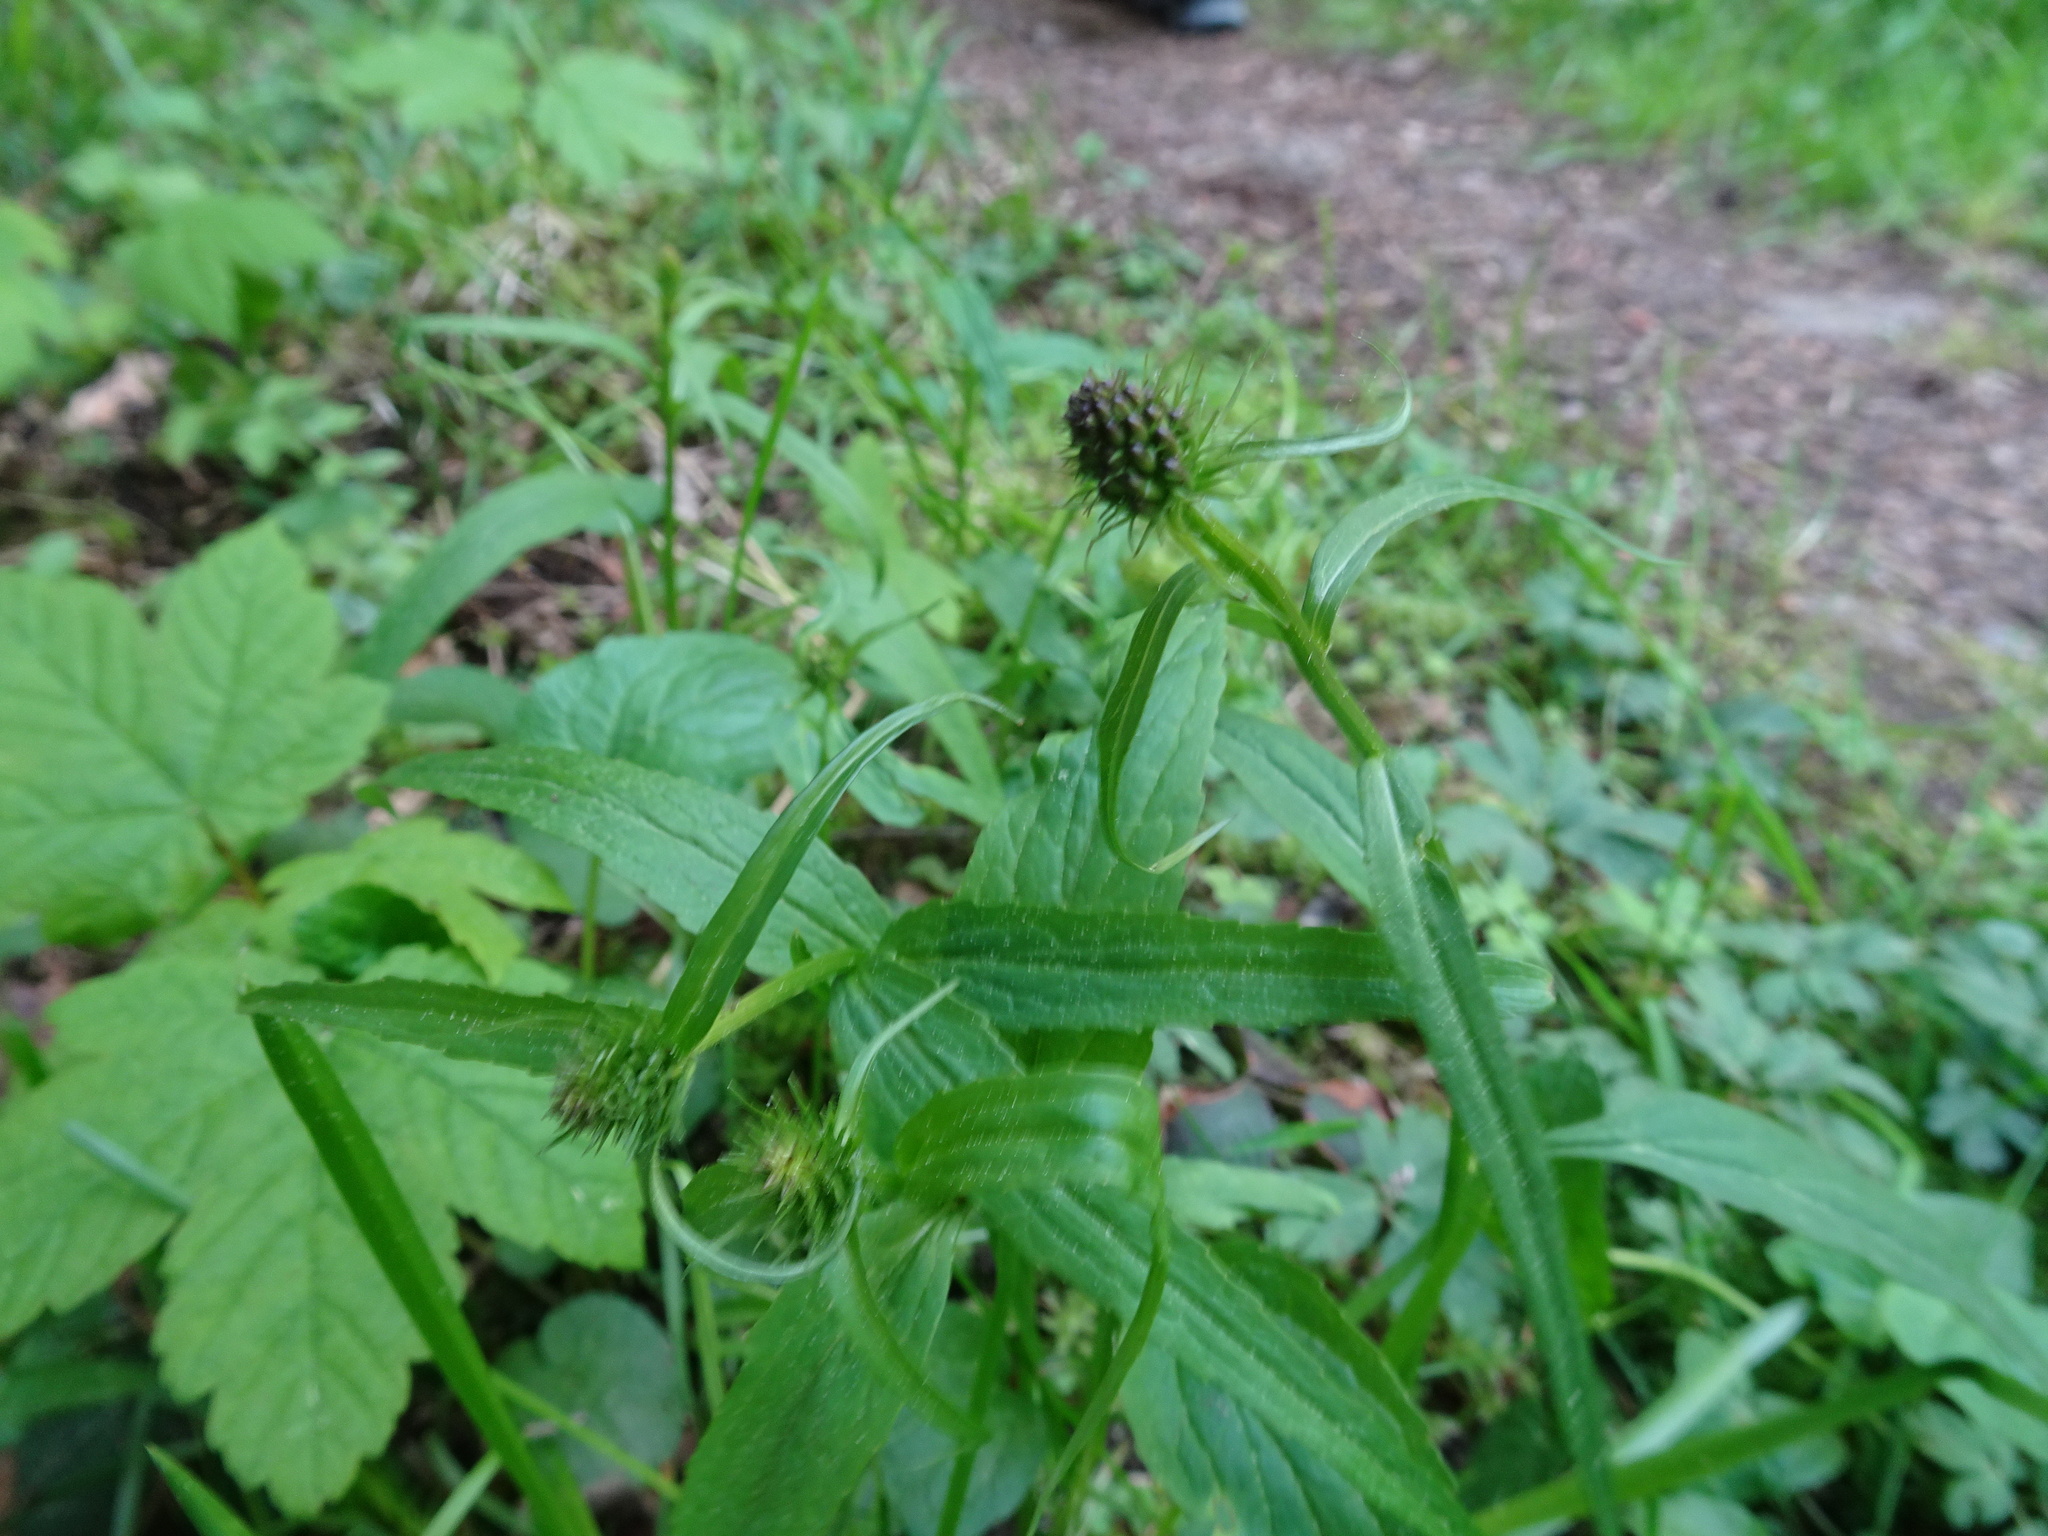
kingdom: Plantae
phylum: Tracheophyta
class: Magnoliopsida
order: Asterales
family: Campanulaceae
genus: Phyteuma
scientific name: Phyteuma nigrum
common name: Black rampion
